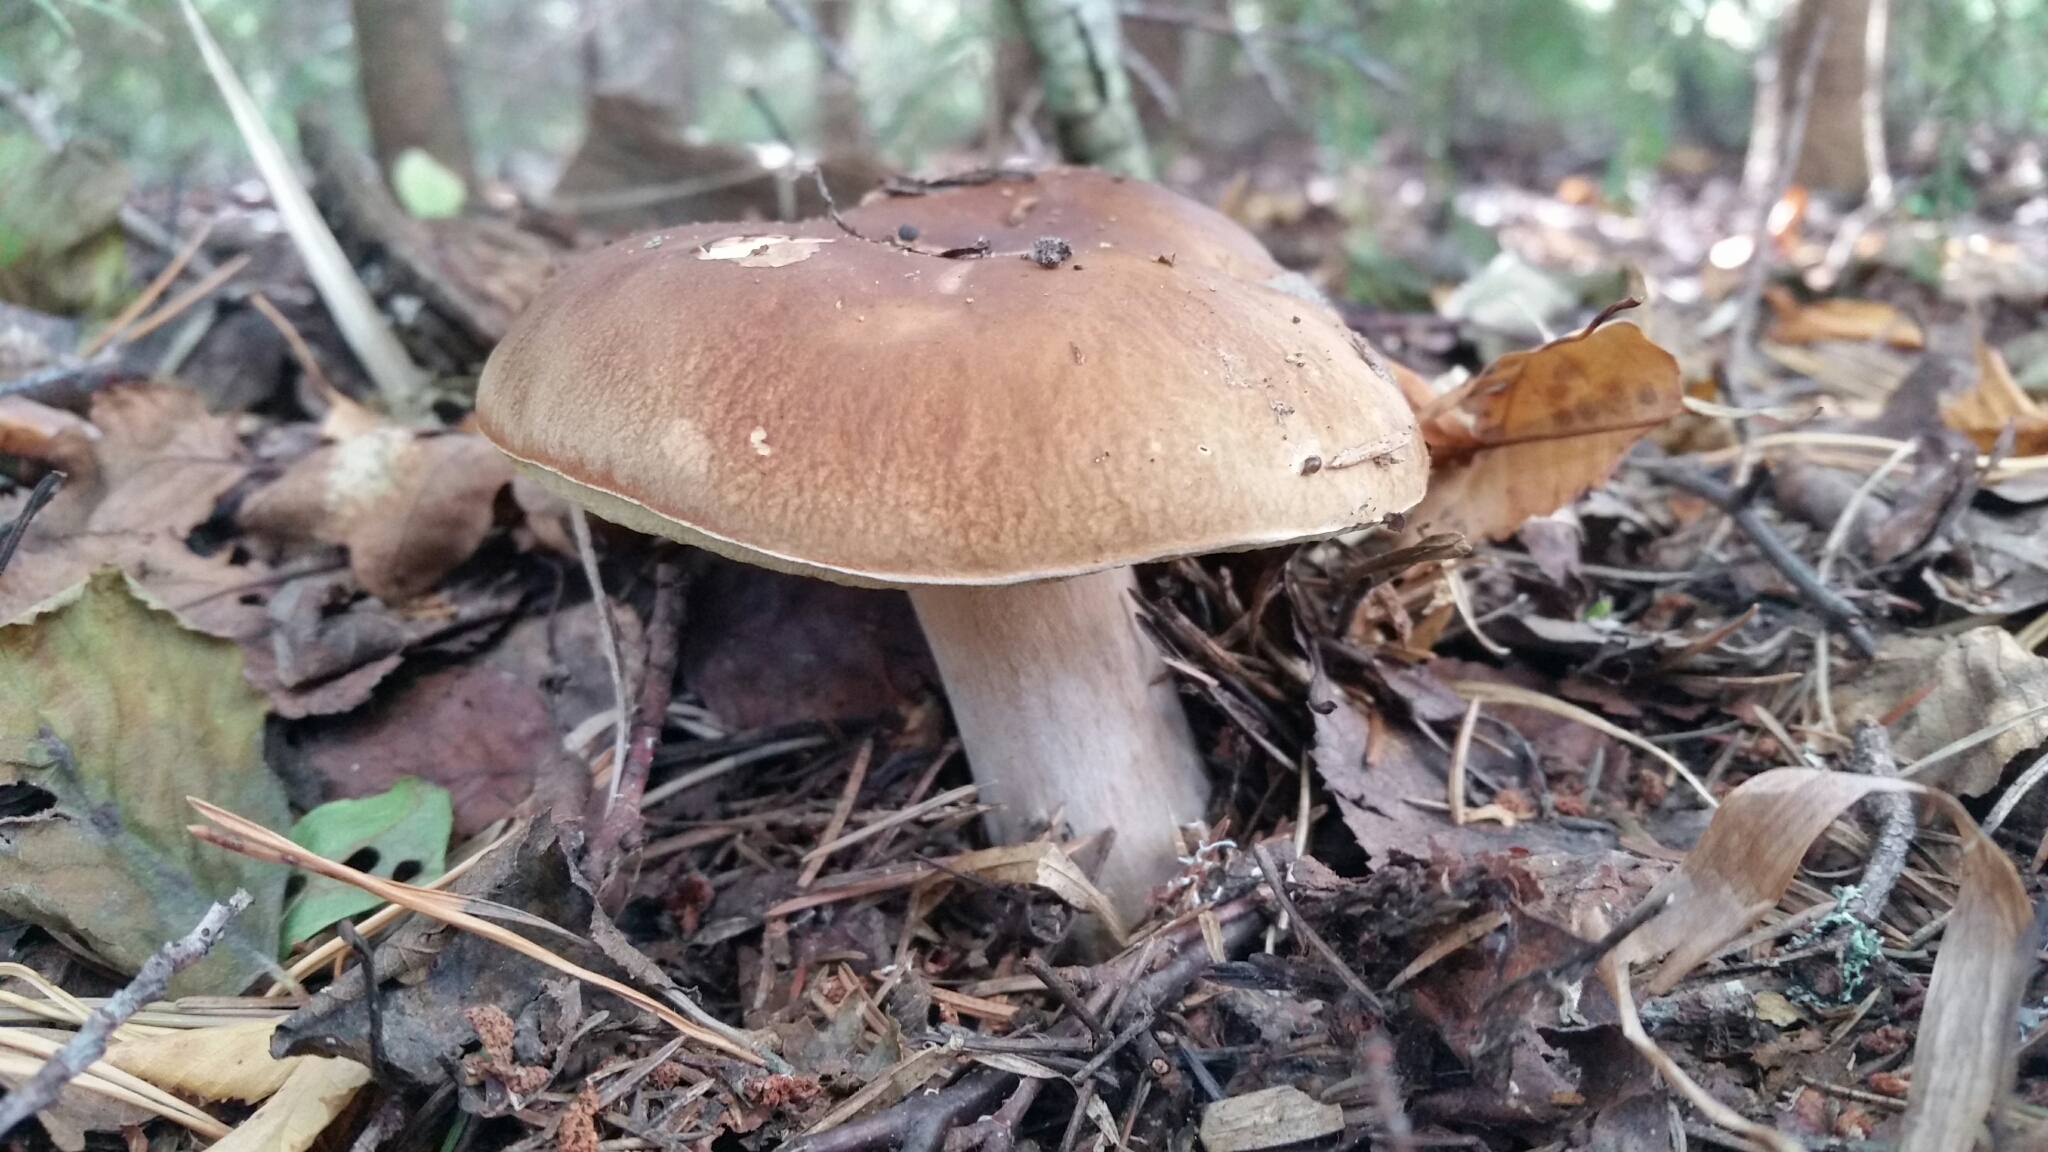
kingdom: Fungi
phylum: Basidiomycota
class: Agaricomycetes
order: Boletales
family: Boletaceae
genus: Boletus
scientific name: Boletus reticulatus
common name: Summer bolete
